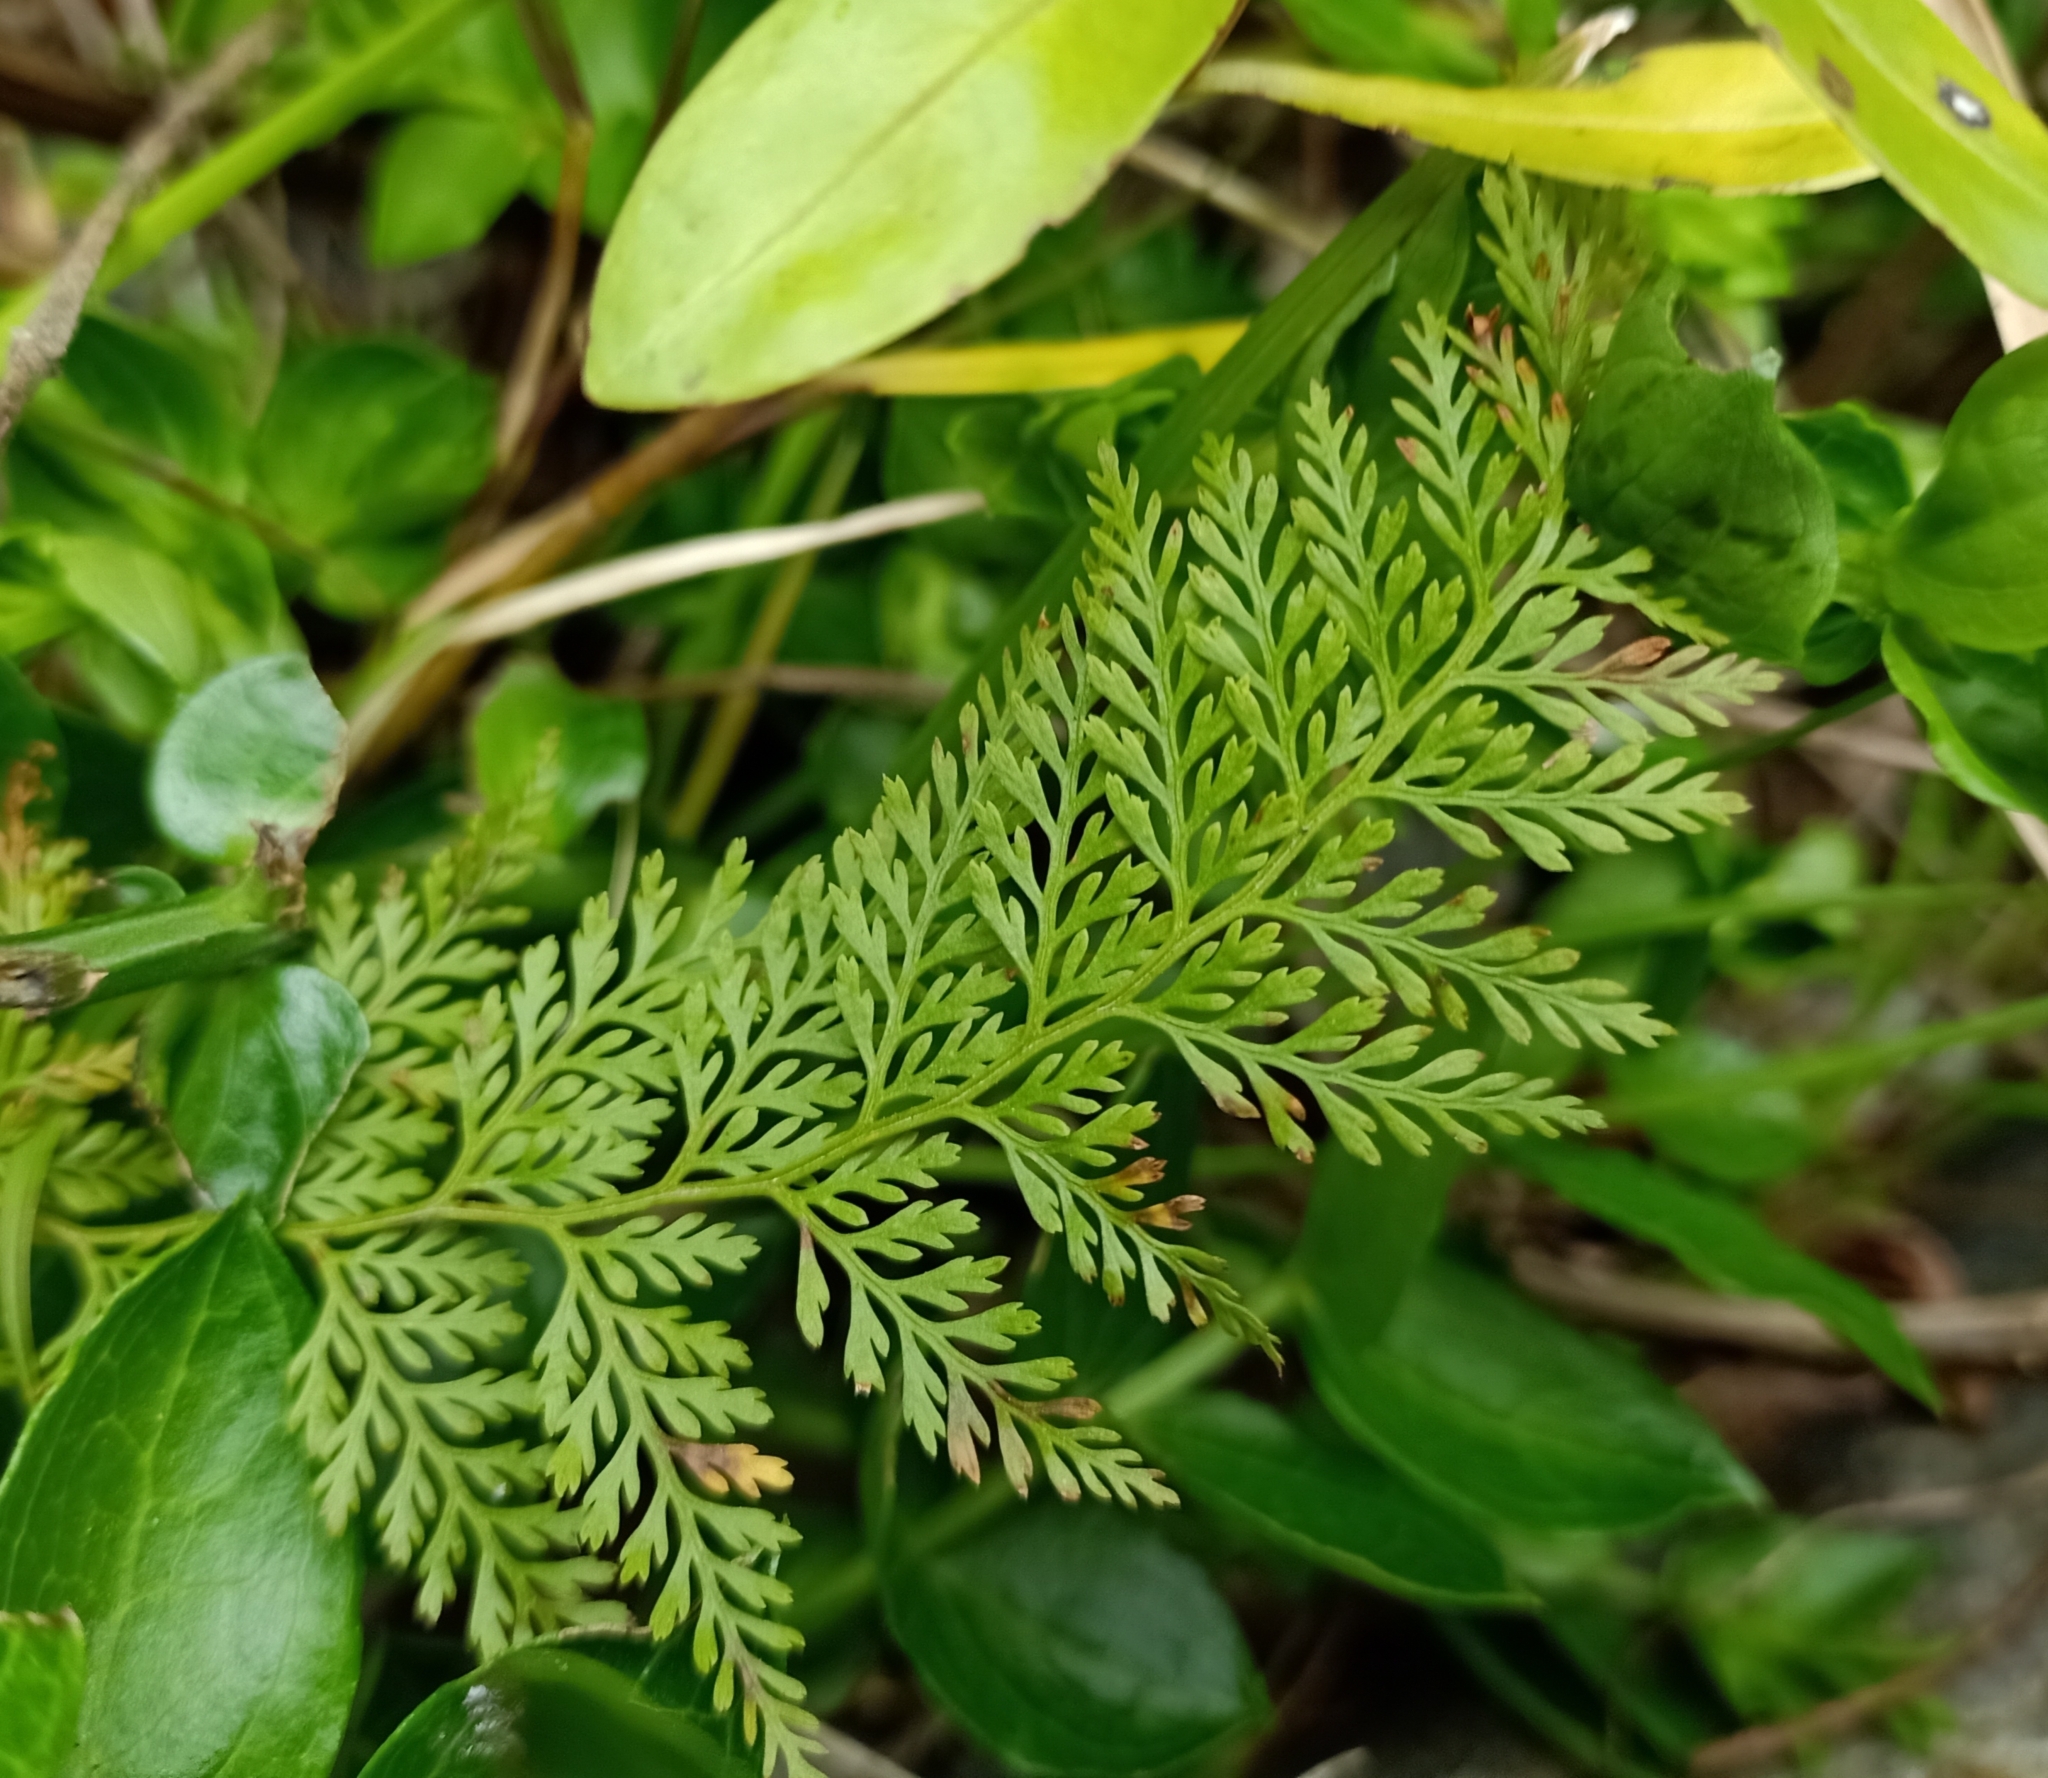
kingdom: Plantae
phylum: Tracheophyta
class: Polypodiopsida
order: Polypodiales
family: Dennstaedtiaceae
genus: Paesia
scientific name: Paesia scaberula
